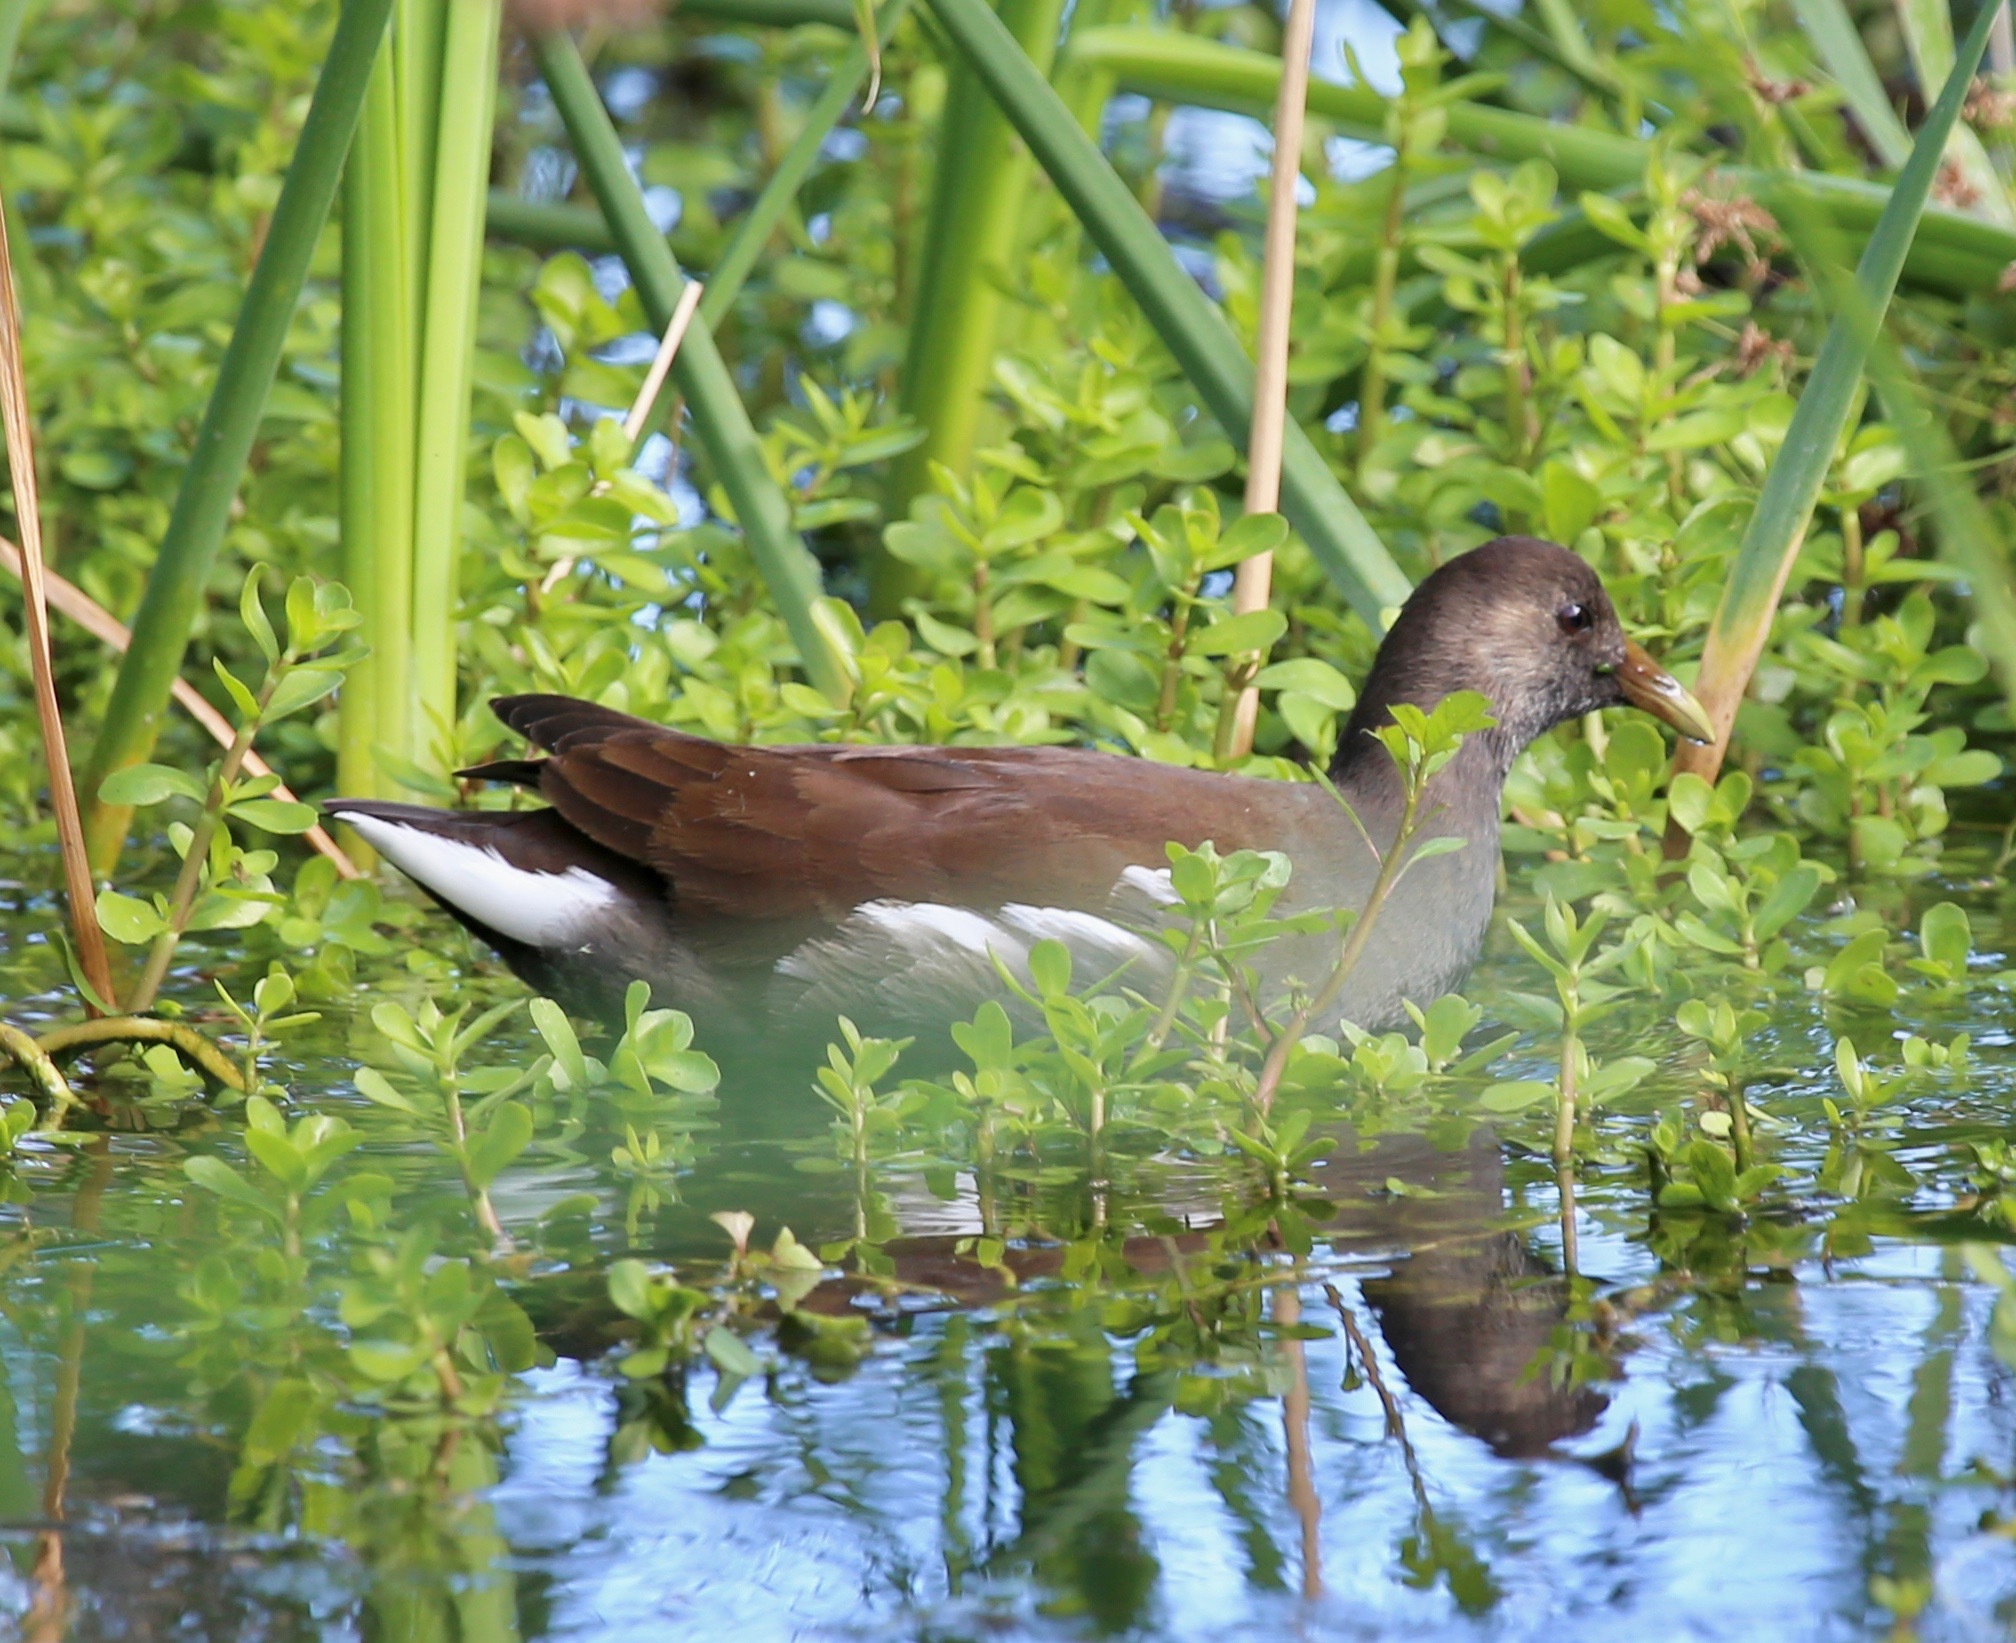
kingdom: Animalia
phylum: Chordata
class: Aves
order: Gruiformes
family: Rallidae
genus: Gallinula
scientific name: Gallinula chloropus
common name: Common moorhen
